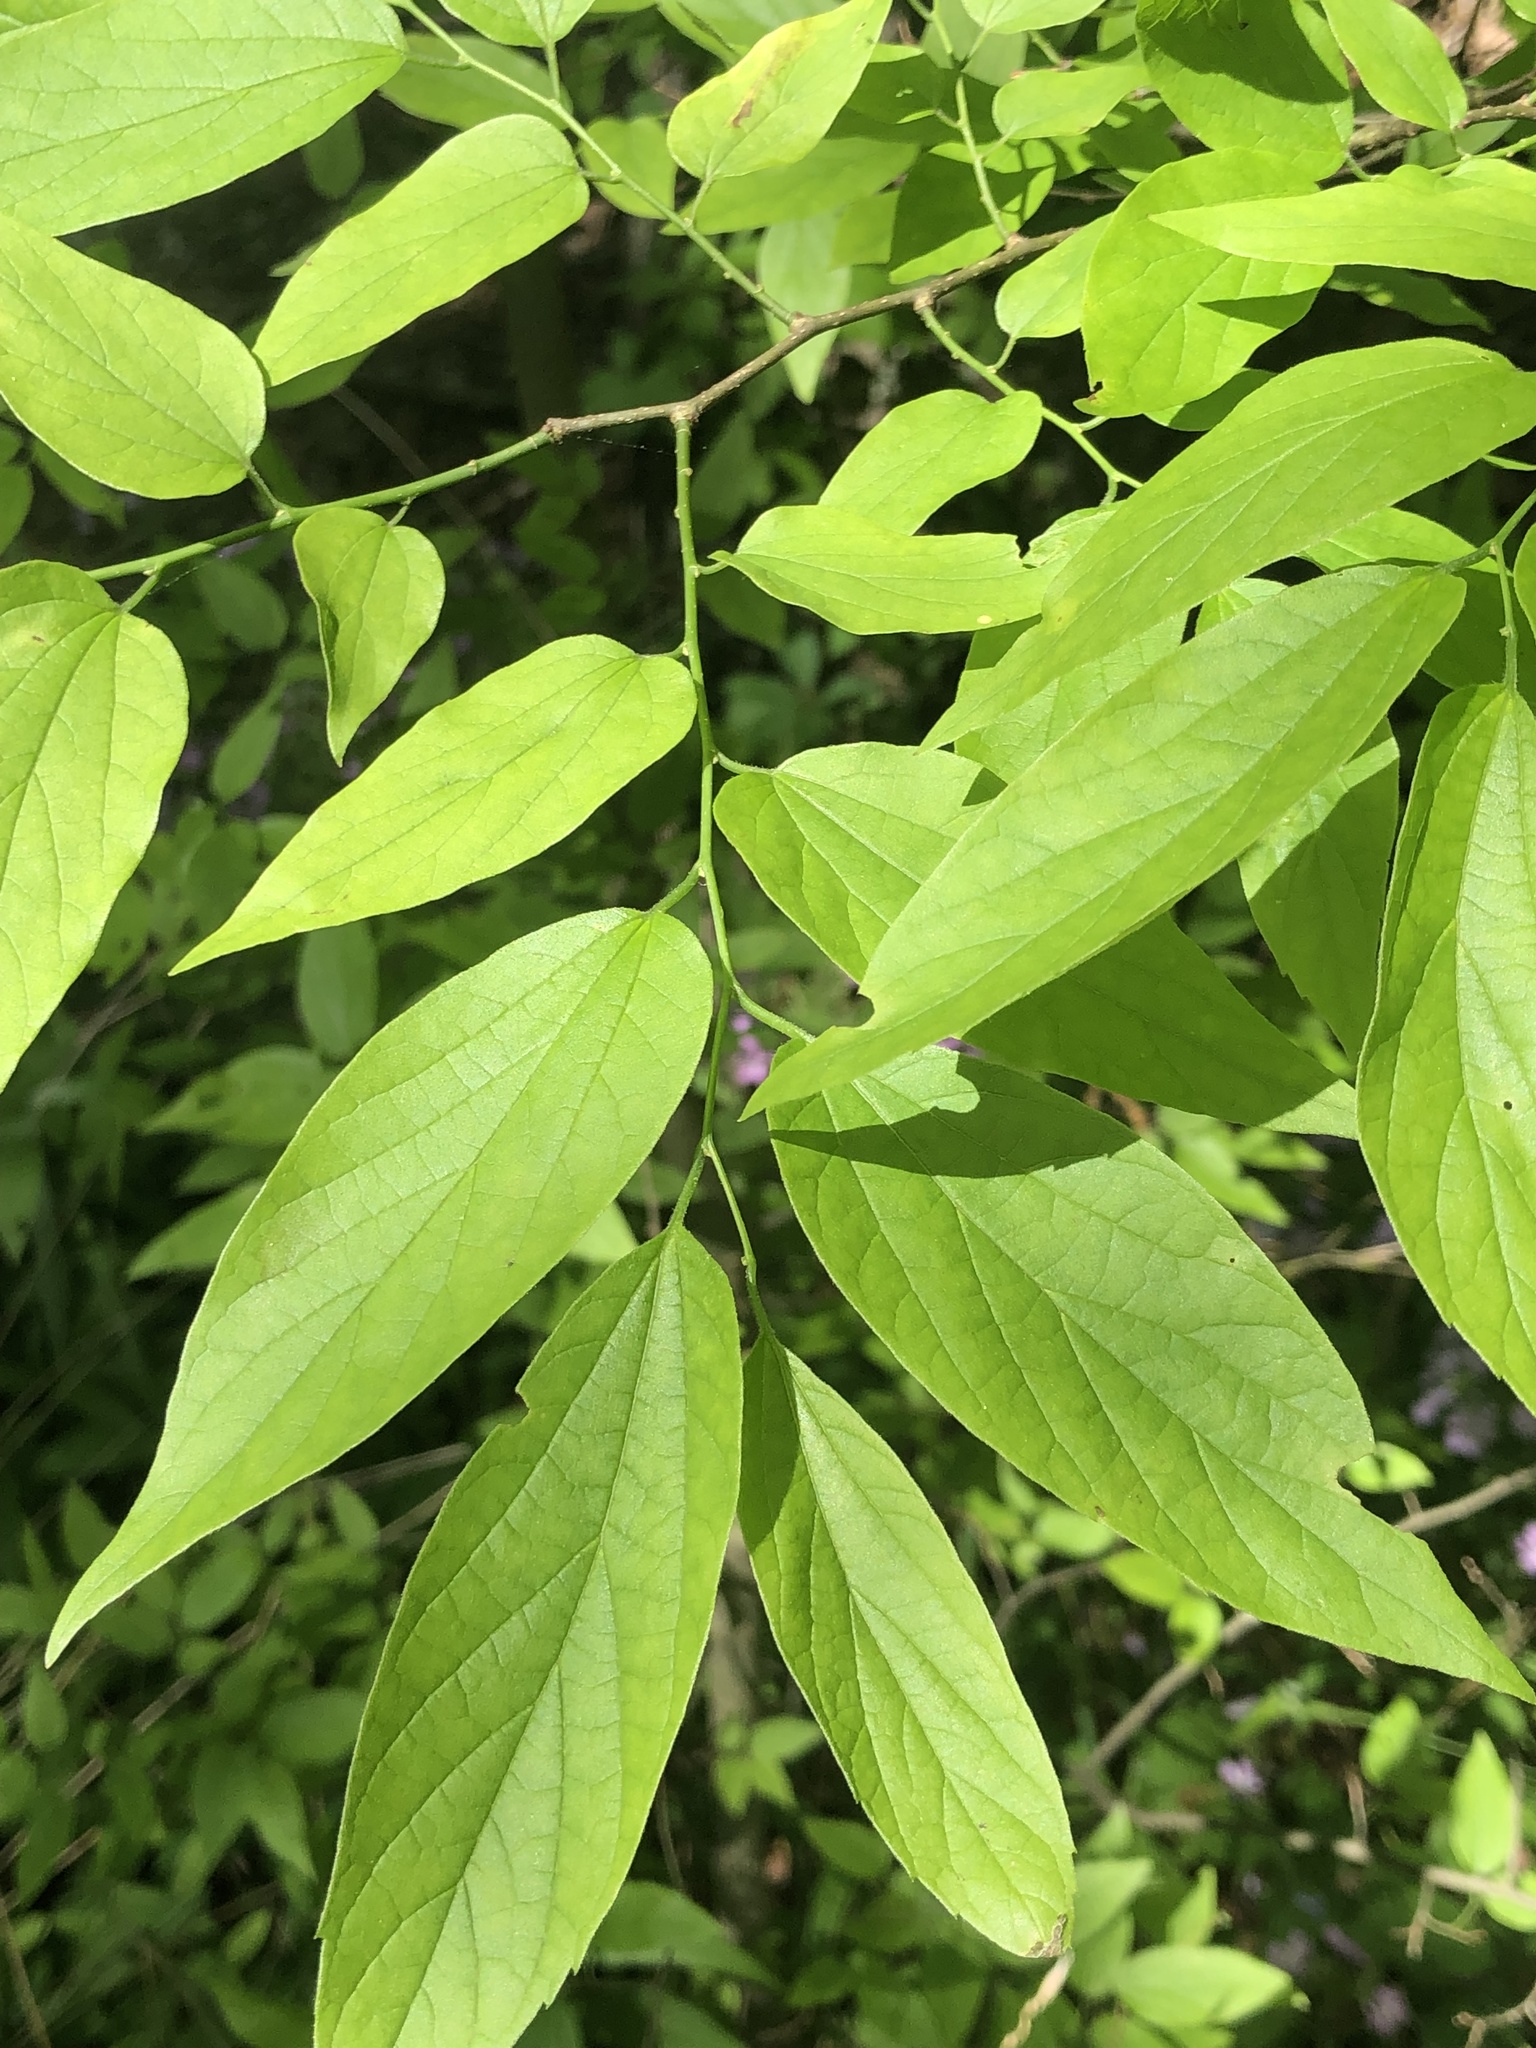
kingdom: Plantae
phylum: Tracheophyta
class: Magnoliopsida
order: Rosales
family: Cannabaceae
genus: Celtis
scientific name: Celtis laevigata
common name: Sugarberry
